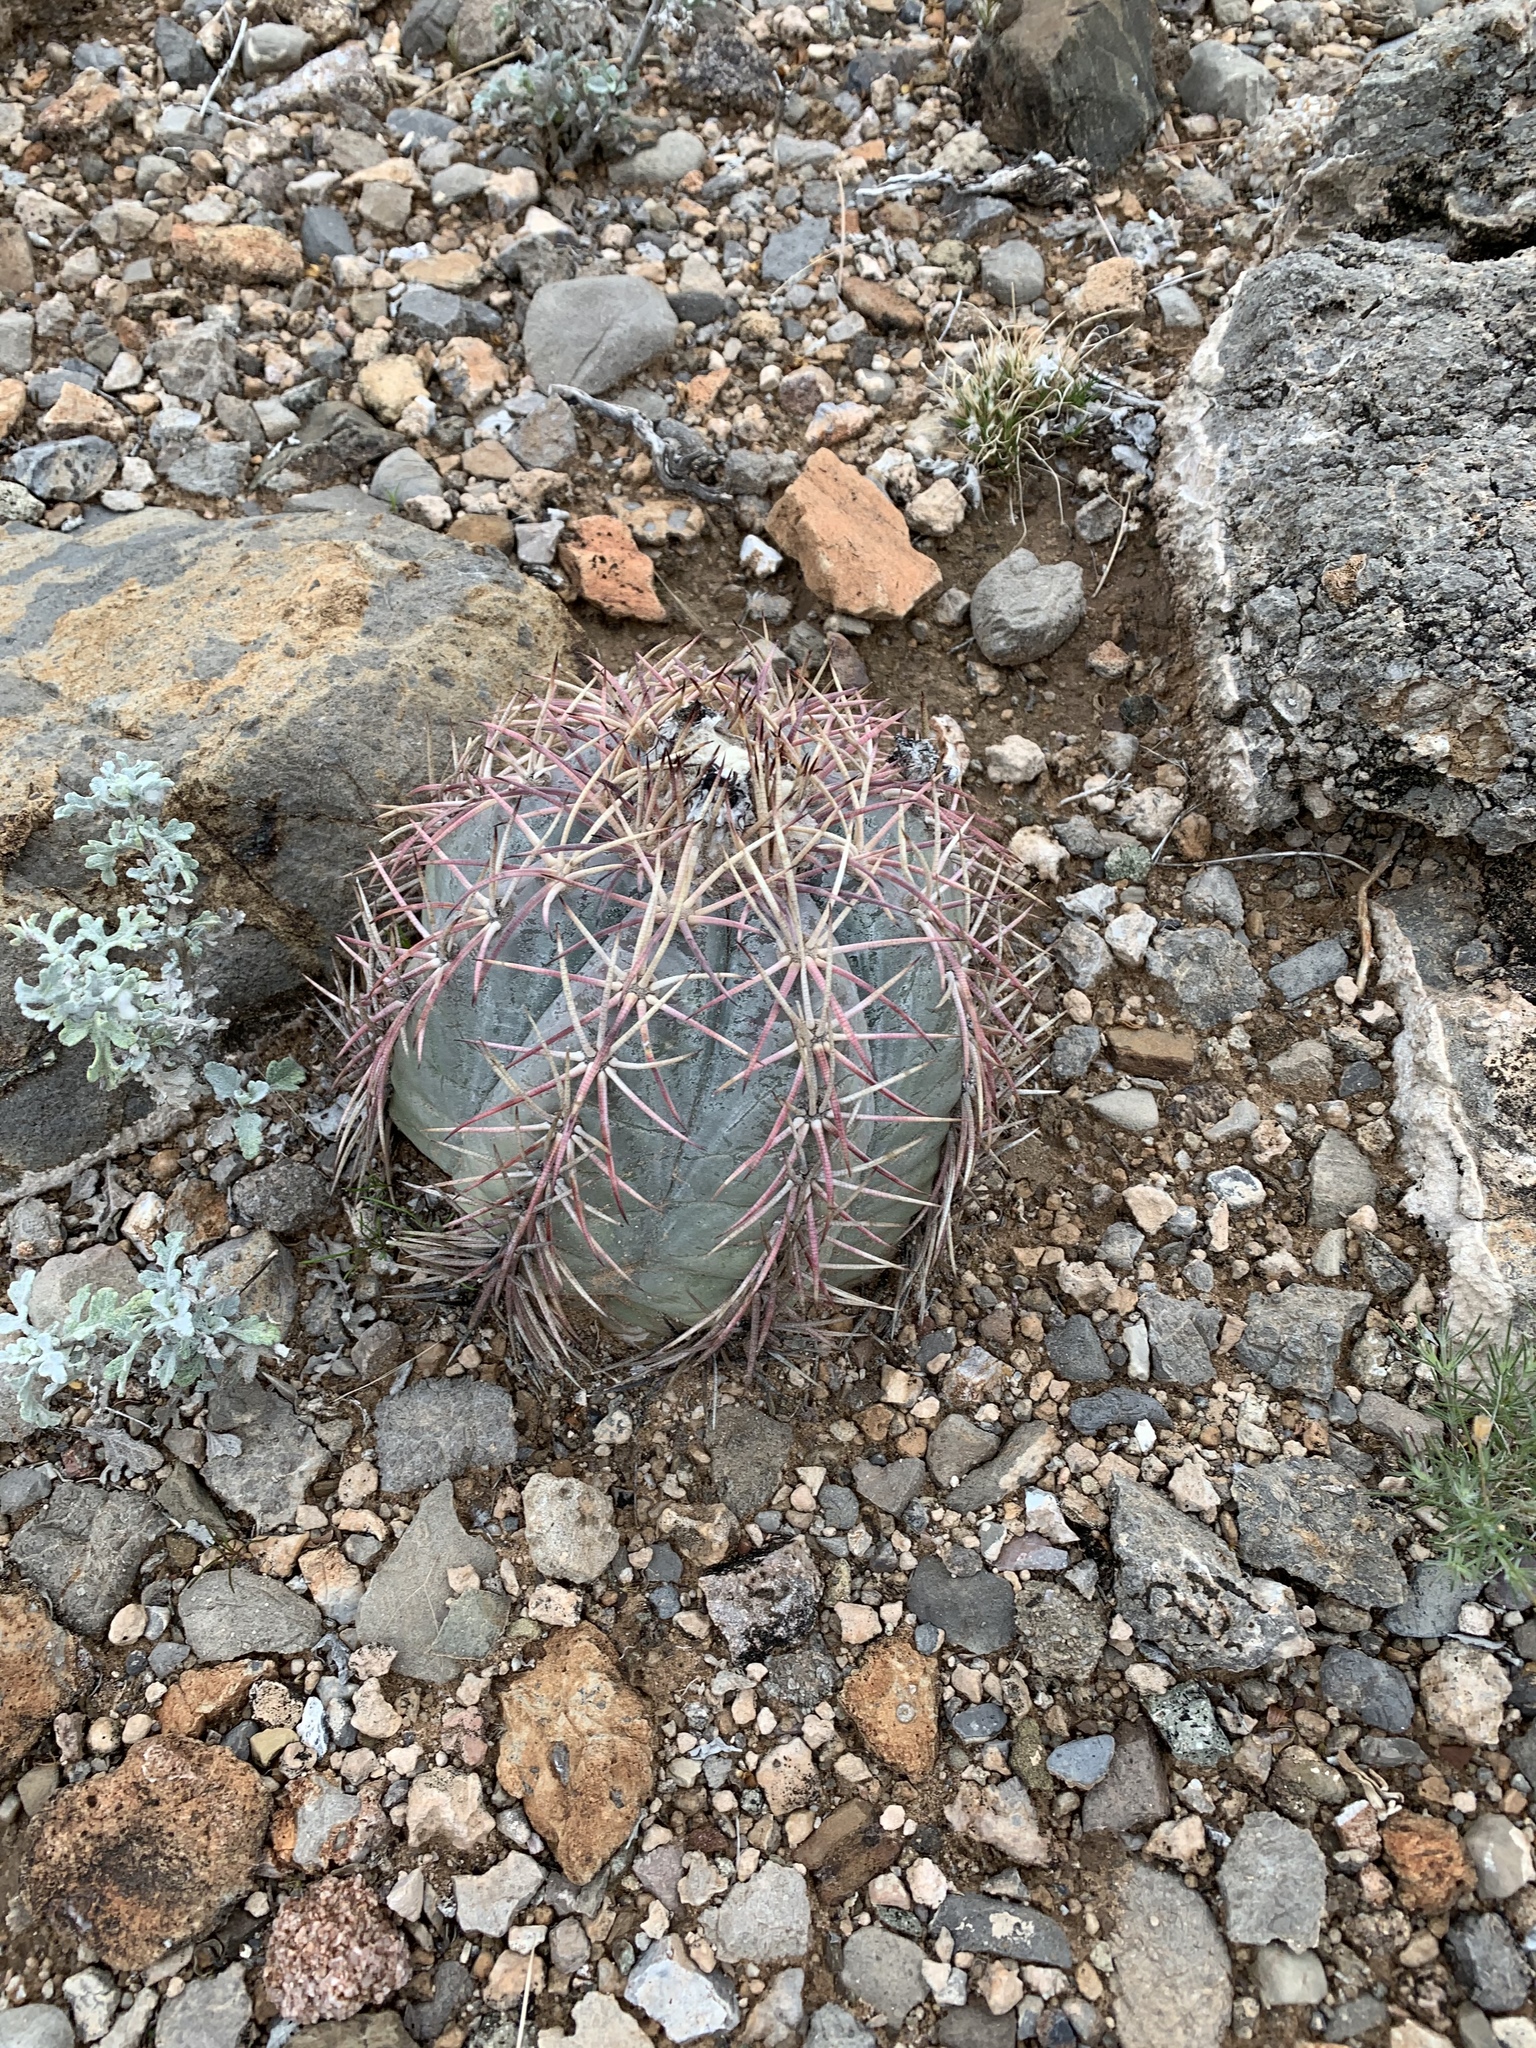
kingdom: Plantae
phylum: Tracheophyta
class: Magnoliopsida
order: Caryophyllales
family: Cactaceae
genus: Echinocactus
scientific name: Echinocactus horizonthalonius
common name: Devilshead
